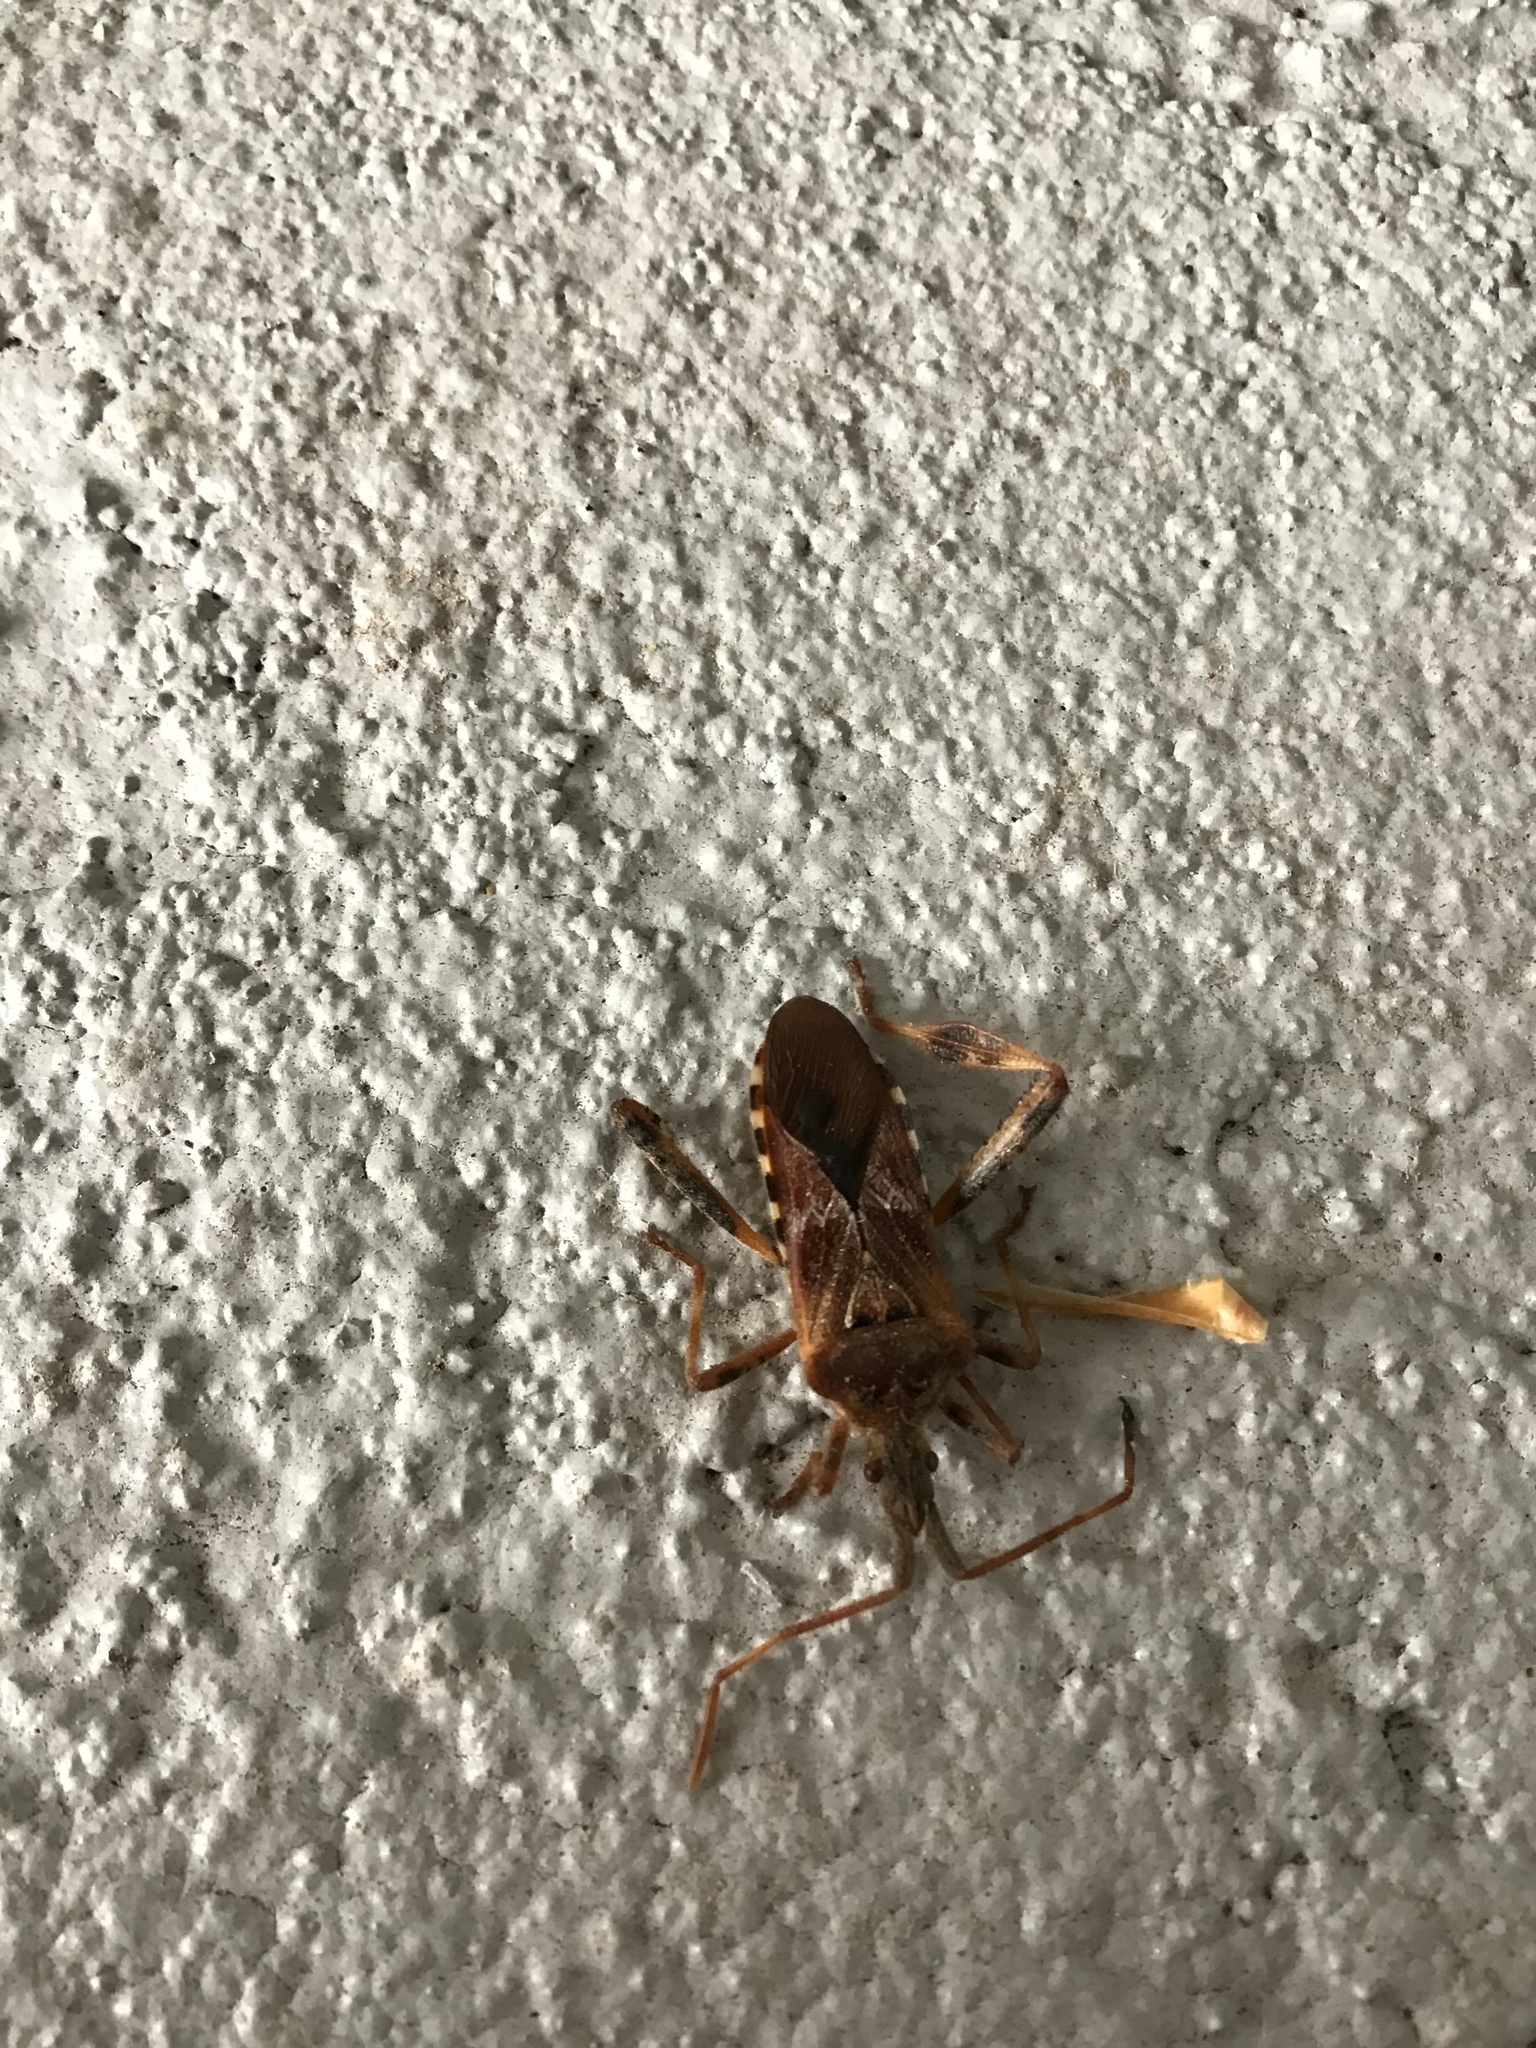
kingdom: Animalia
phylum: Arthropoda
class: Insecta
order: Hemiptera
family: Coreidae
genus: Leptoglossus
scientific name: Leptoglossus occidentalis
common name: Western conifer-seed bug
